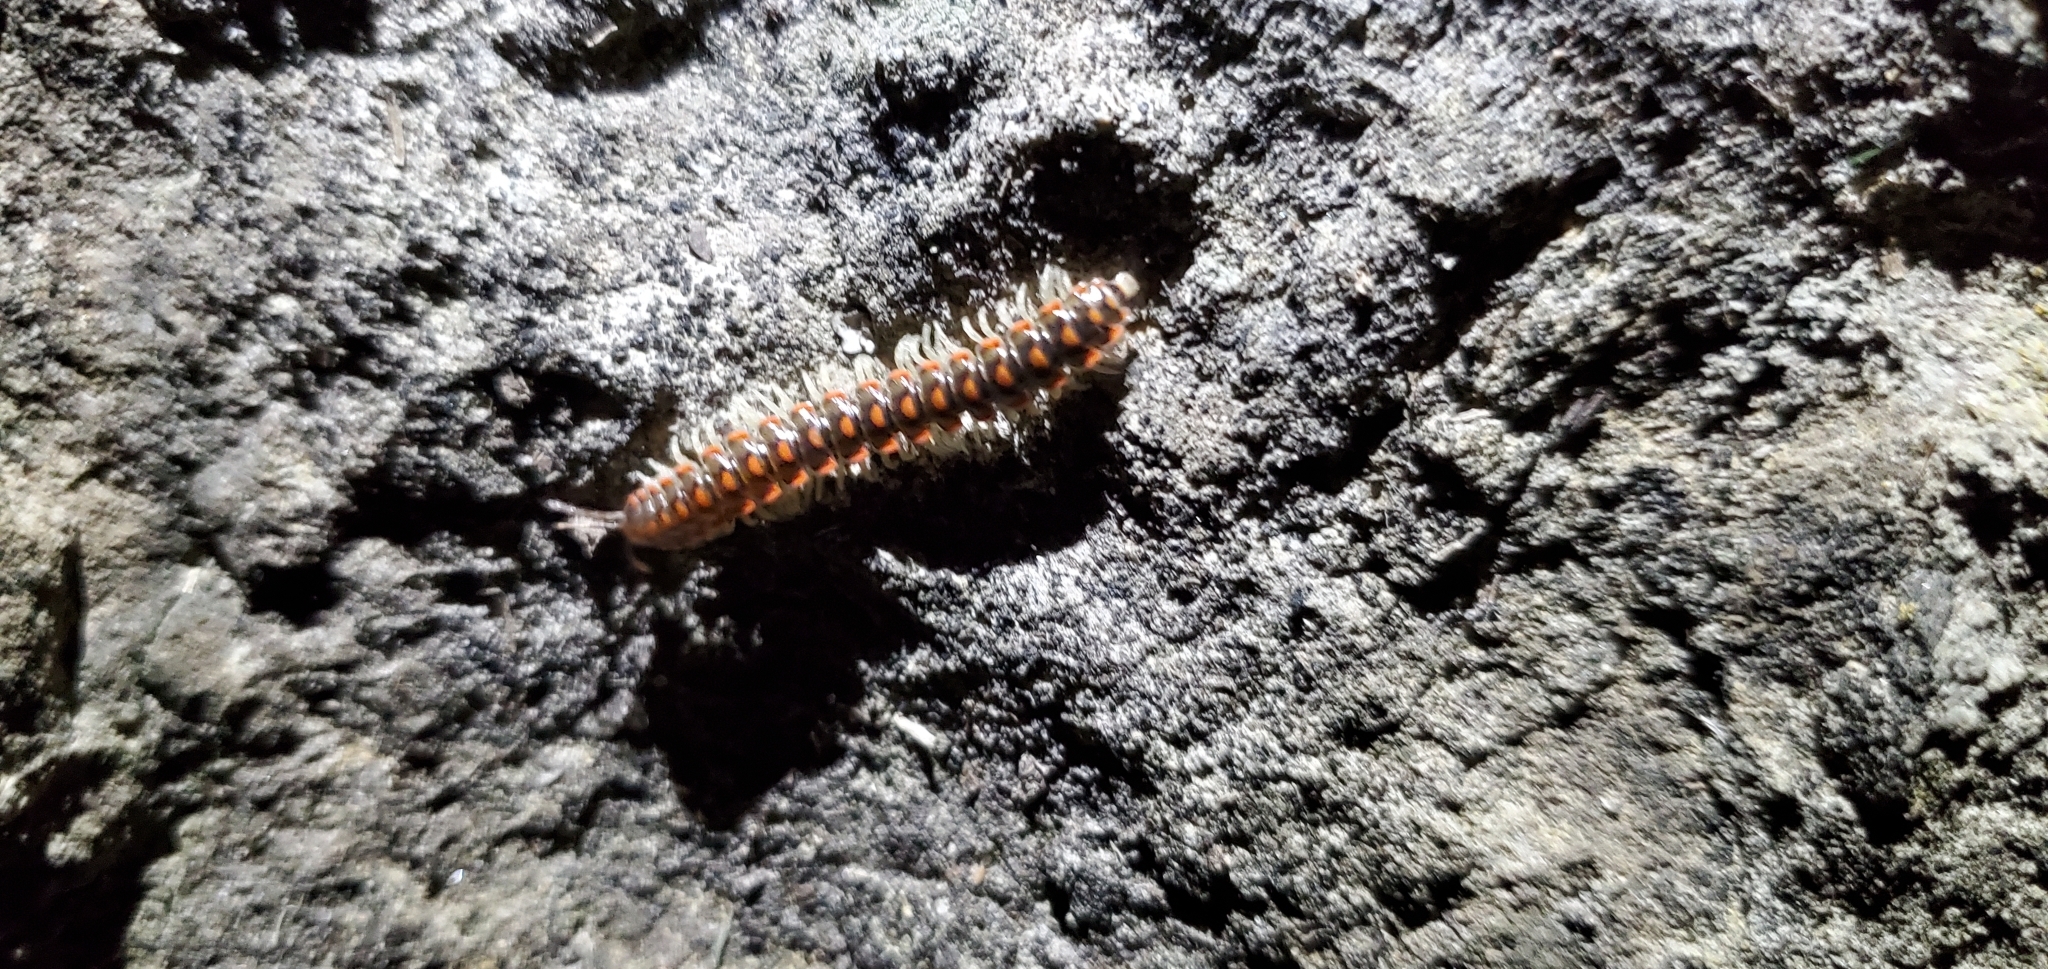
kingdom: Animalia
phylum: Arthropoda
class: Diplopoda
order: Polydesmida
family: Xystodesmidae
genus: Euryurus
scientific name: Euryurus evides
